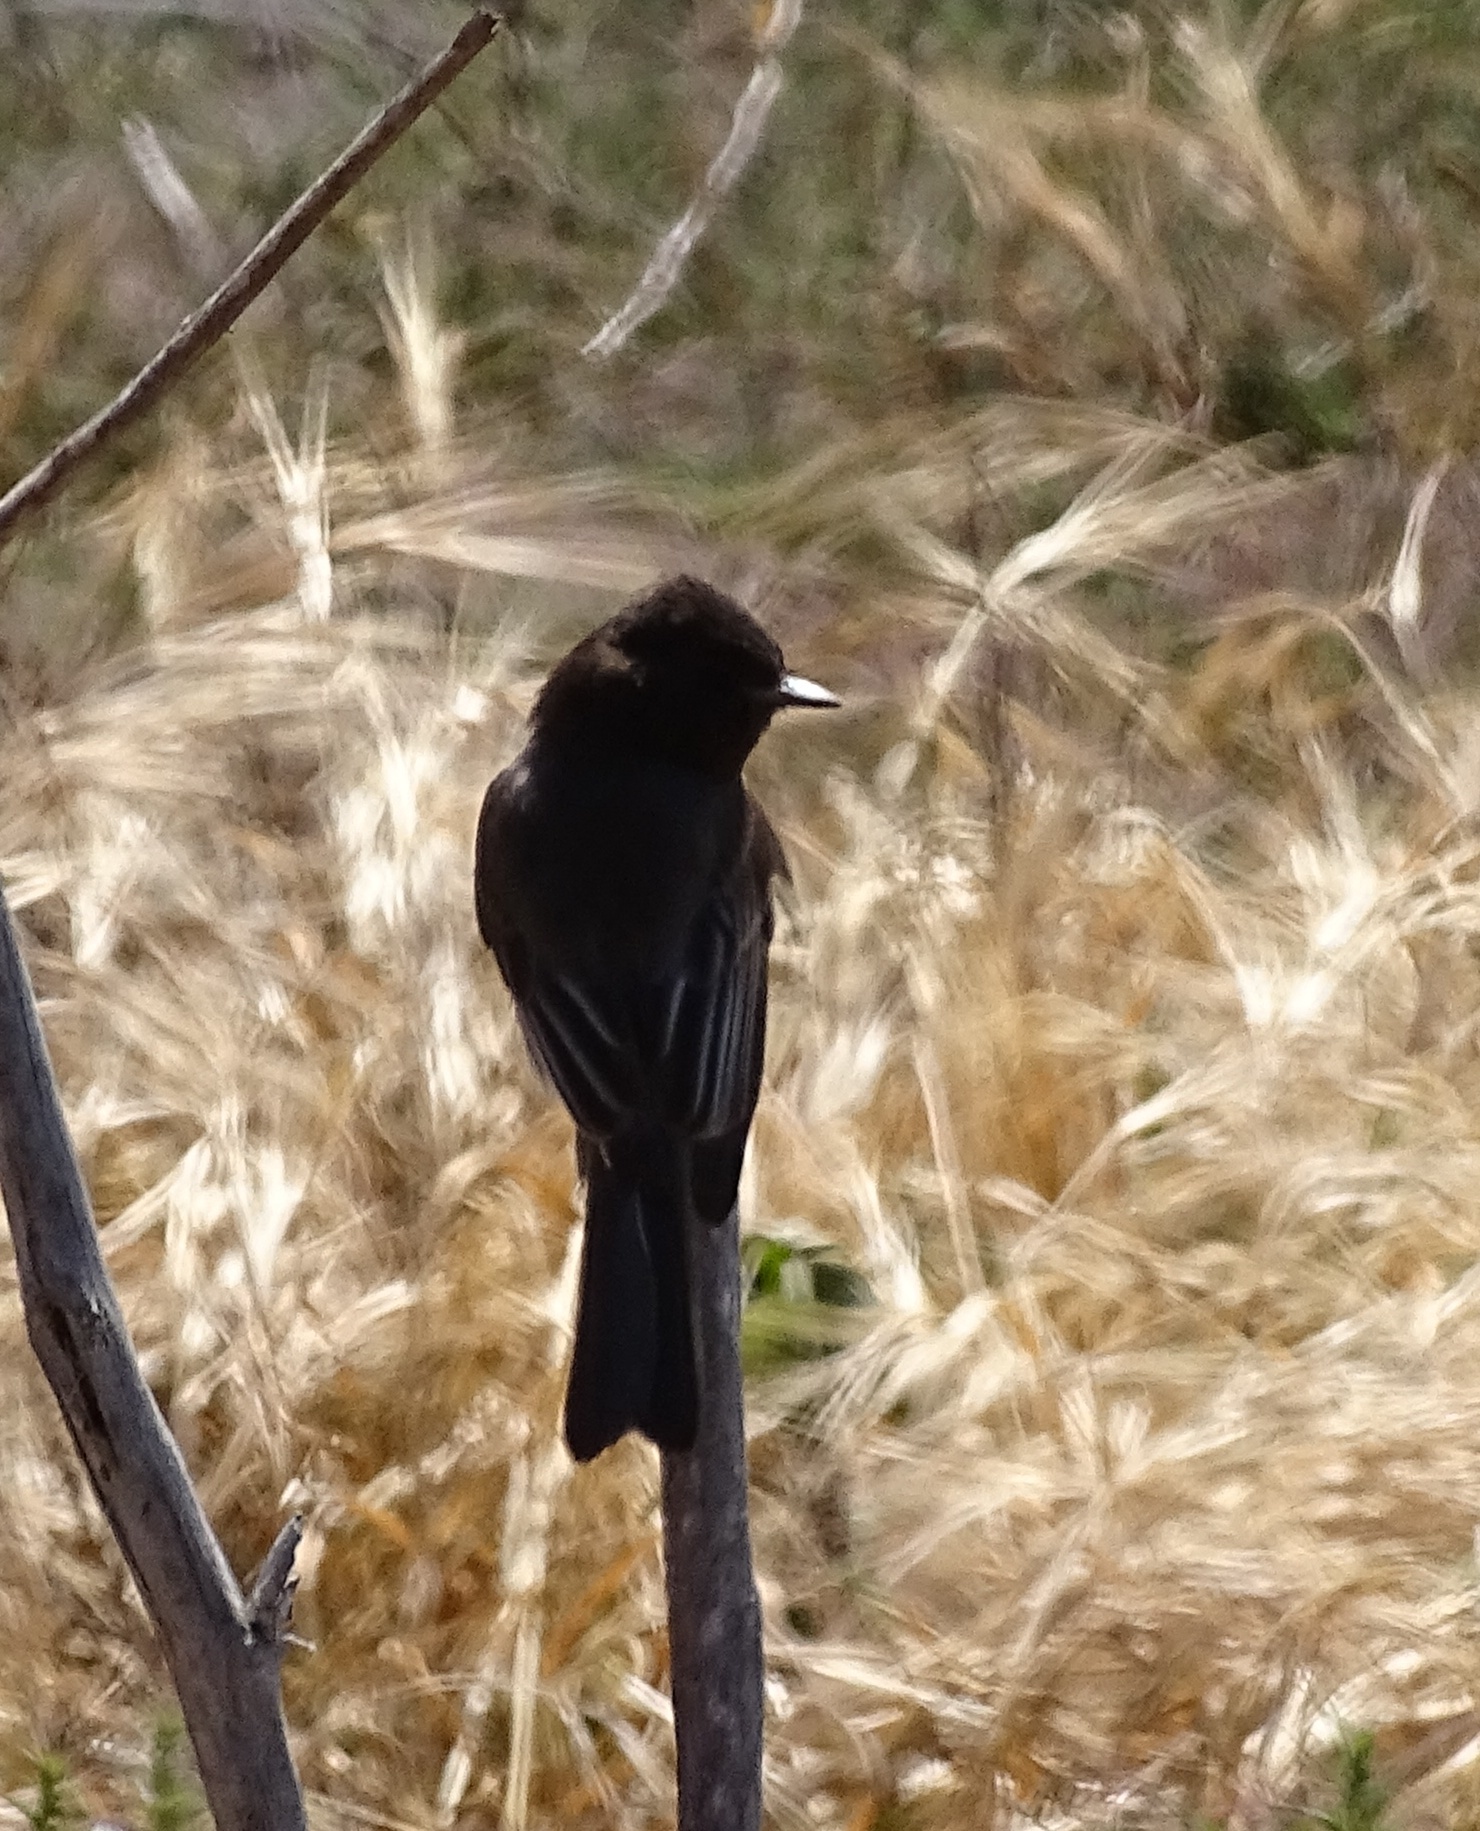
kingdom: Animalia
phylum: Chordata
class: Aves
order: Passeriformes
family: Tyrannidae
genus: Sayornis
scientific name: Sayornis nigricans
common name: Black phoebe
